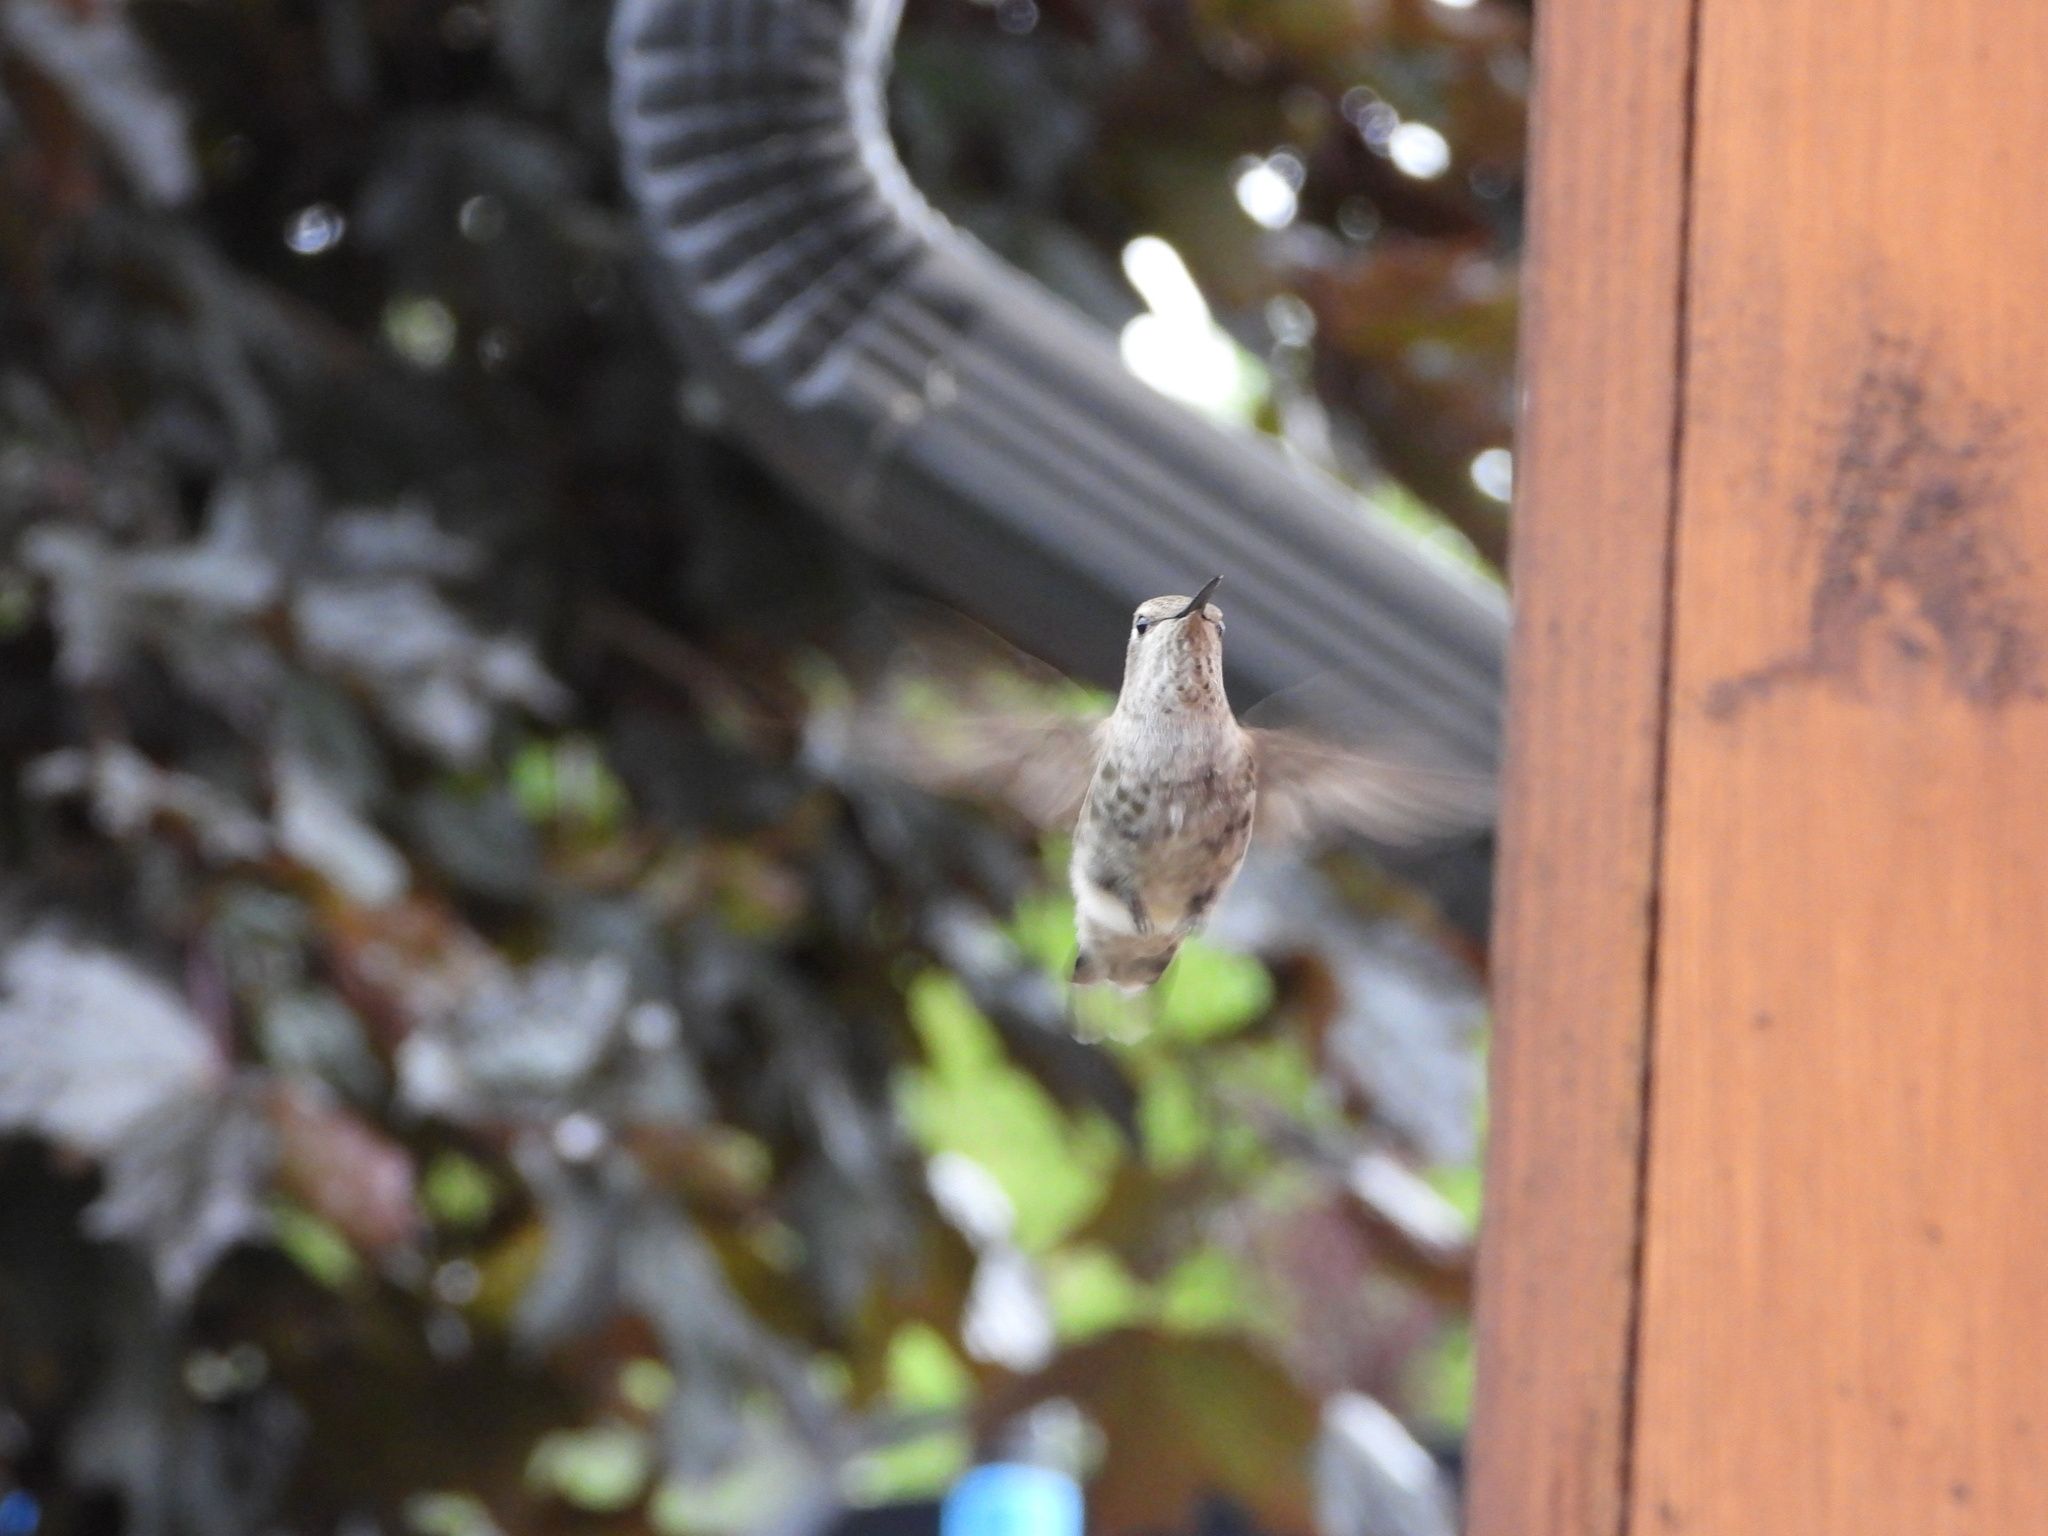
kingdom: Animalia
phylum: Chordata
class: Aves
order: Apodiformes
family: Trochilidae
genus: Calypte
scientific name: Calypte anna
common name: Anna's hummingbird
